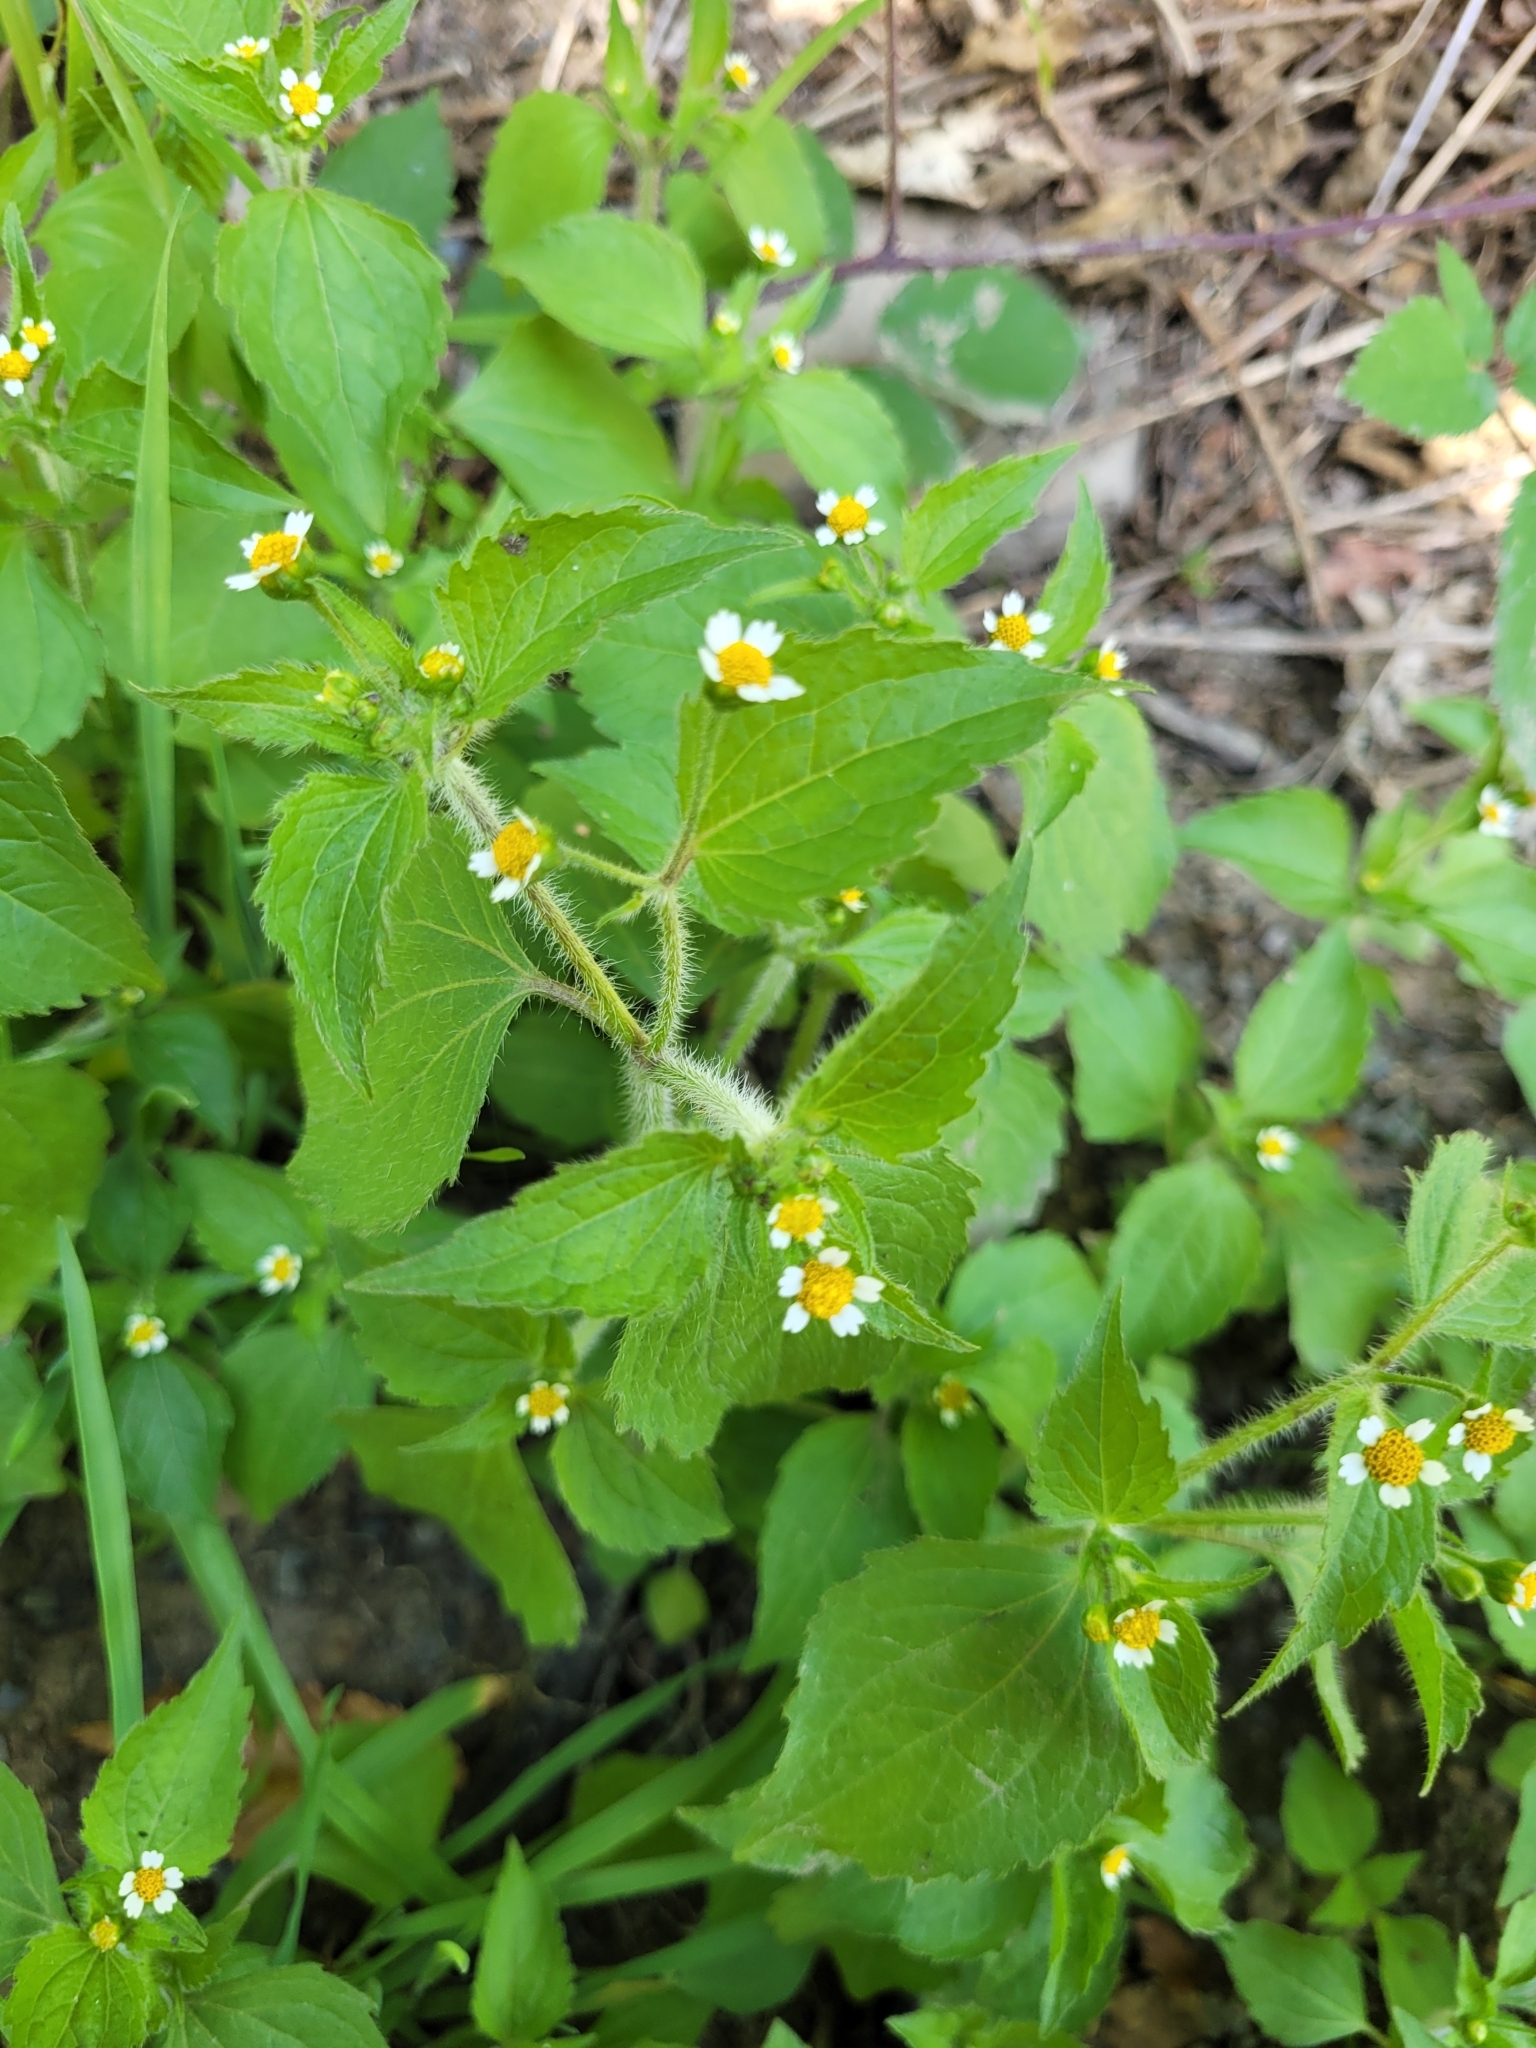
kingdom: Plantae
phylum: Tracheophyta
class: Magnoliopsida
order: Asterales
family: Asteraceae
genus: Galinsoga
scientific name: Galinsoga quadriradiata
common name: Shaggy soldier
